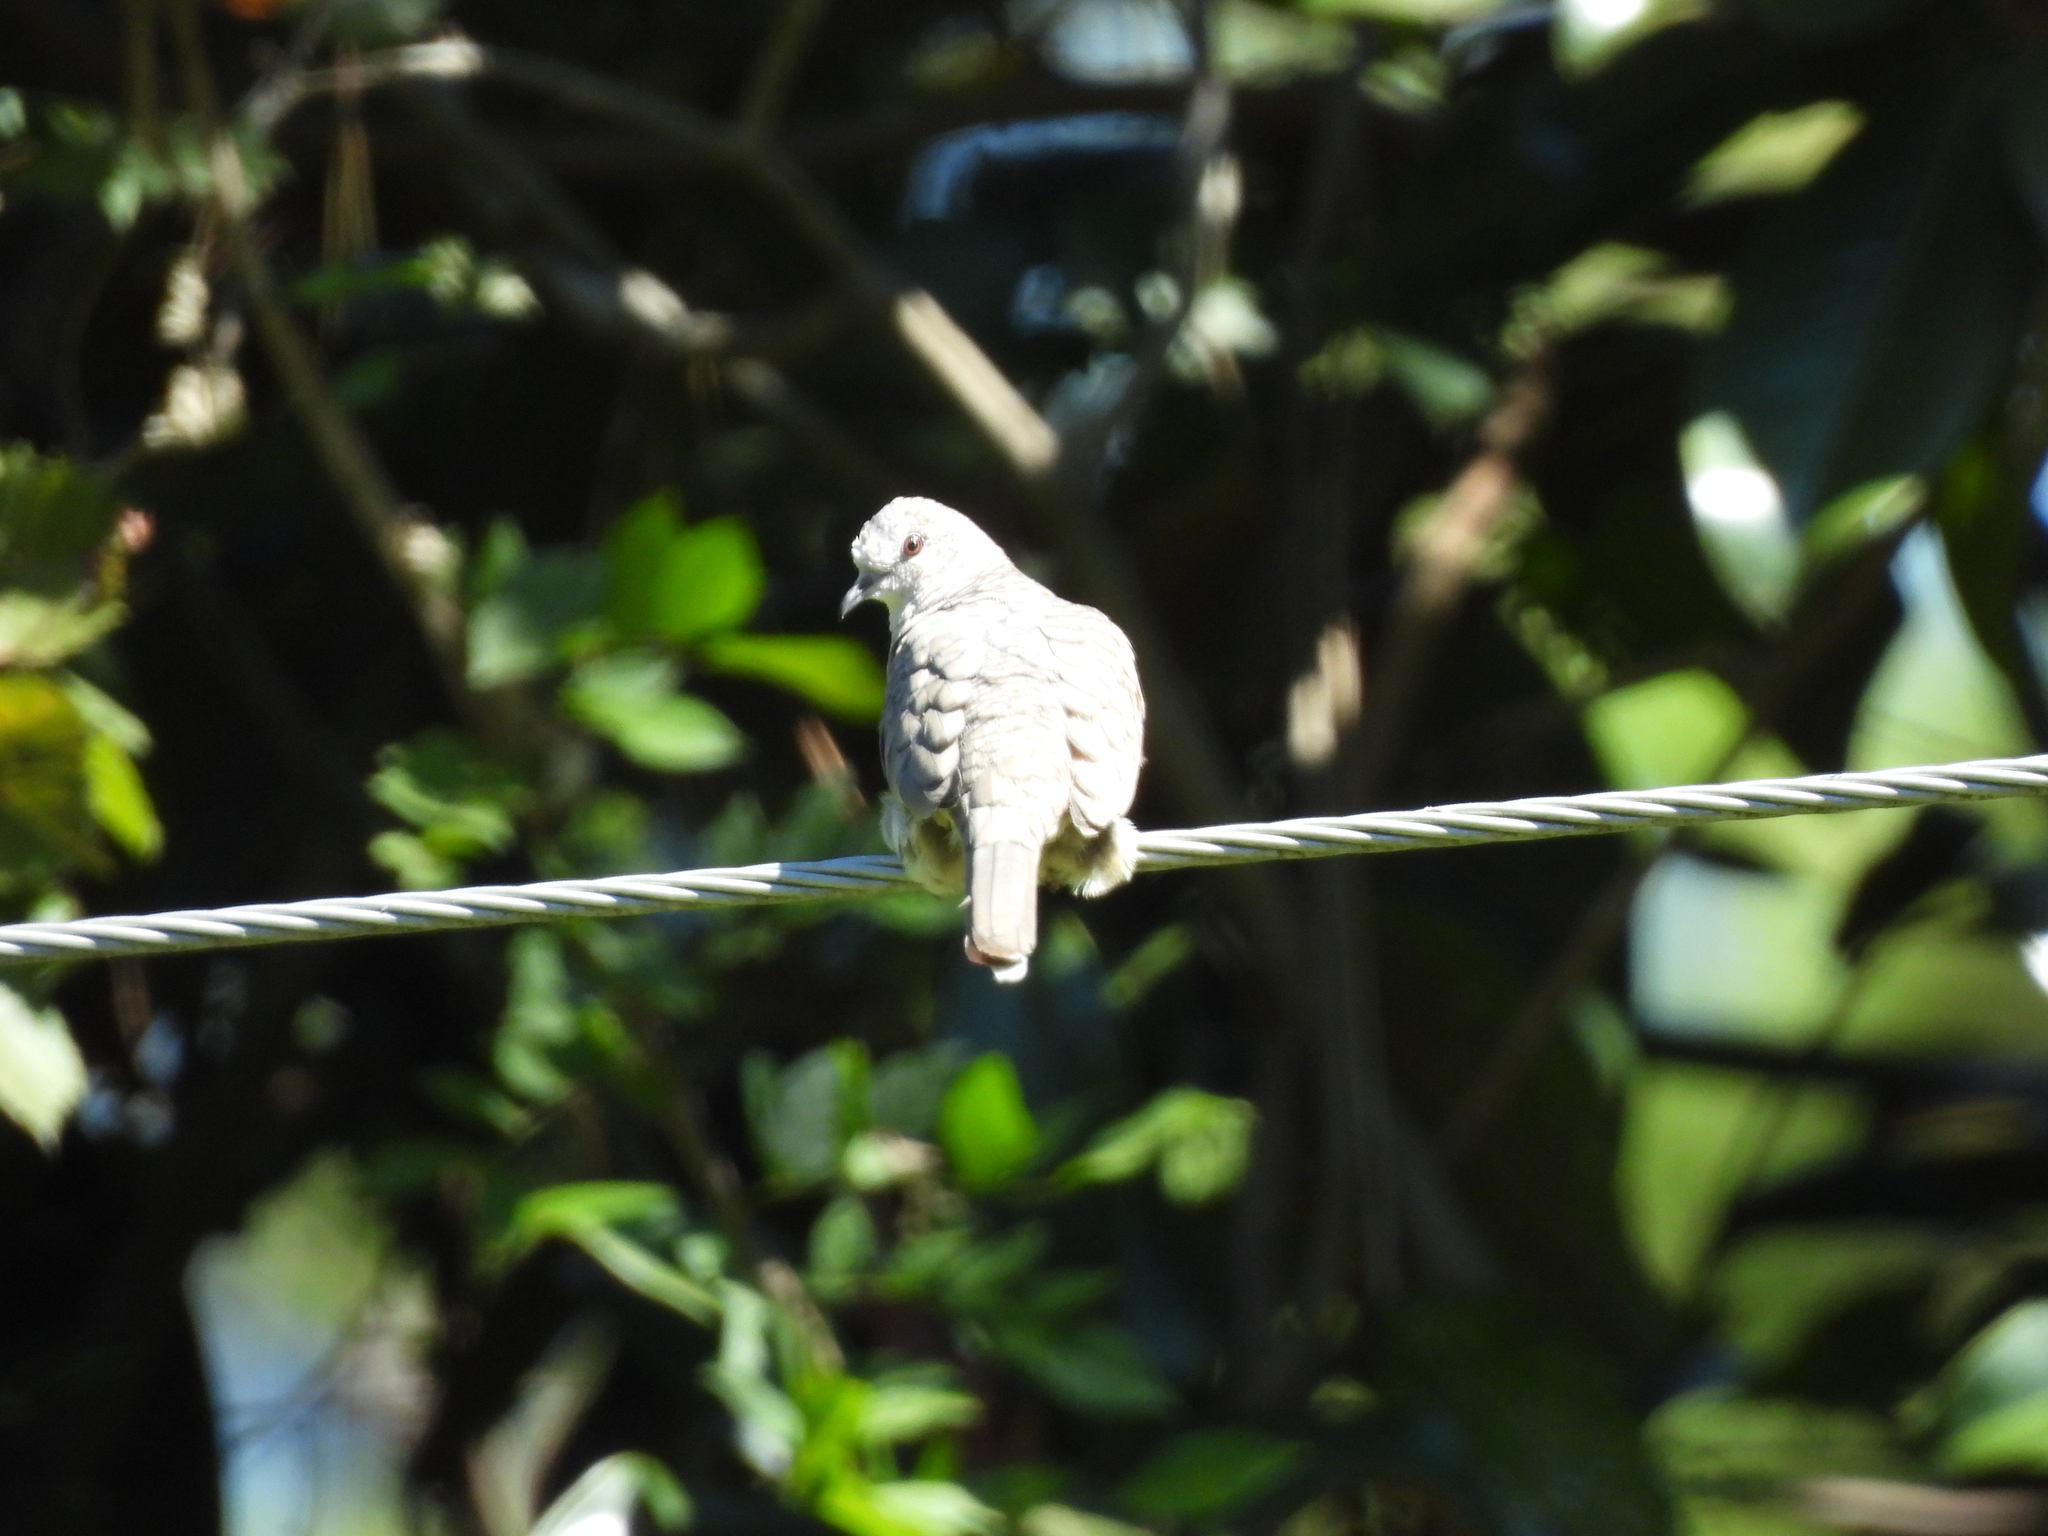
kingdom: Animalia
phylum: Chordata
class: Aves
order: Columbiformes
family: Columbidae
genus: Columbina
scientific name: Columbina inca
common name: Inca dove
